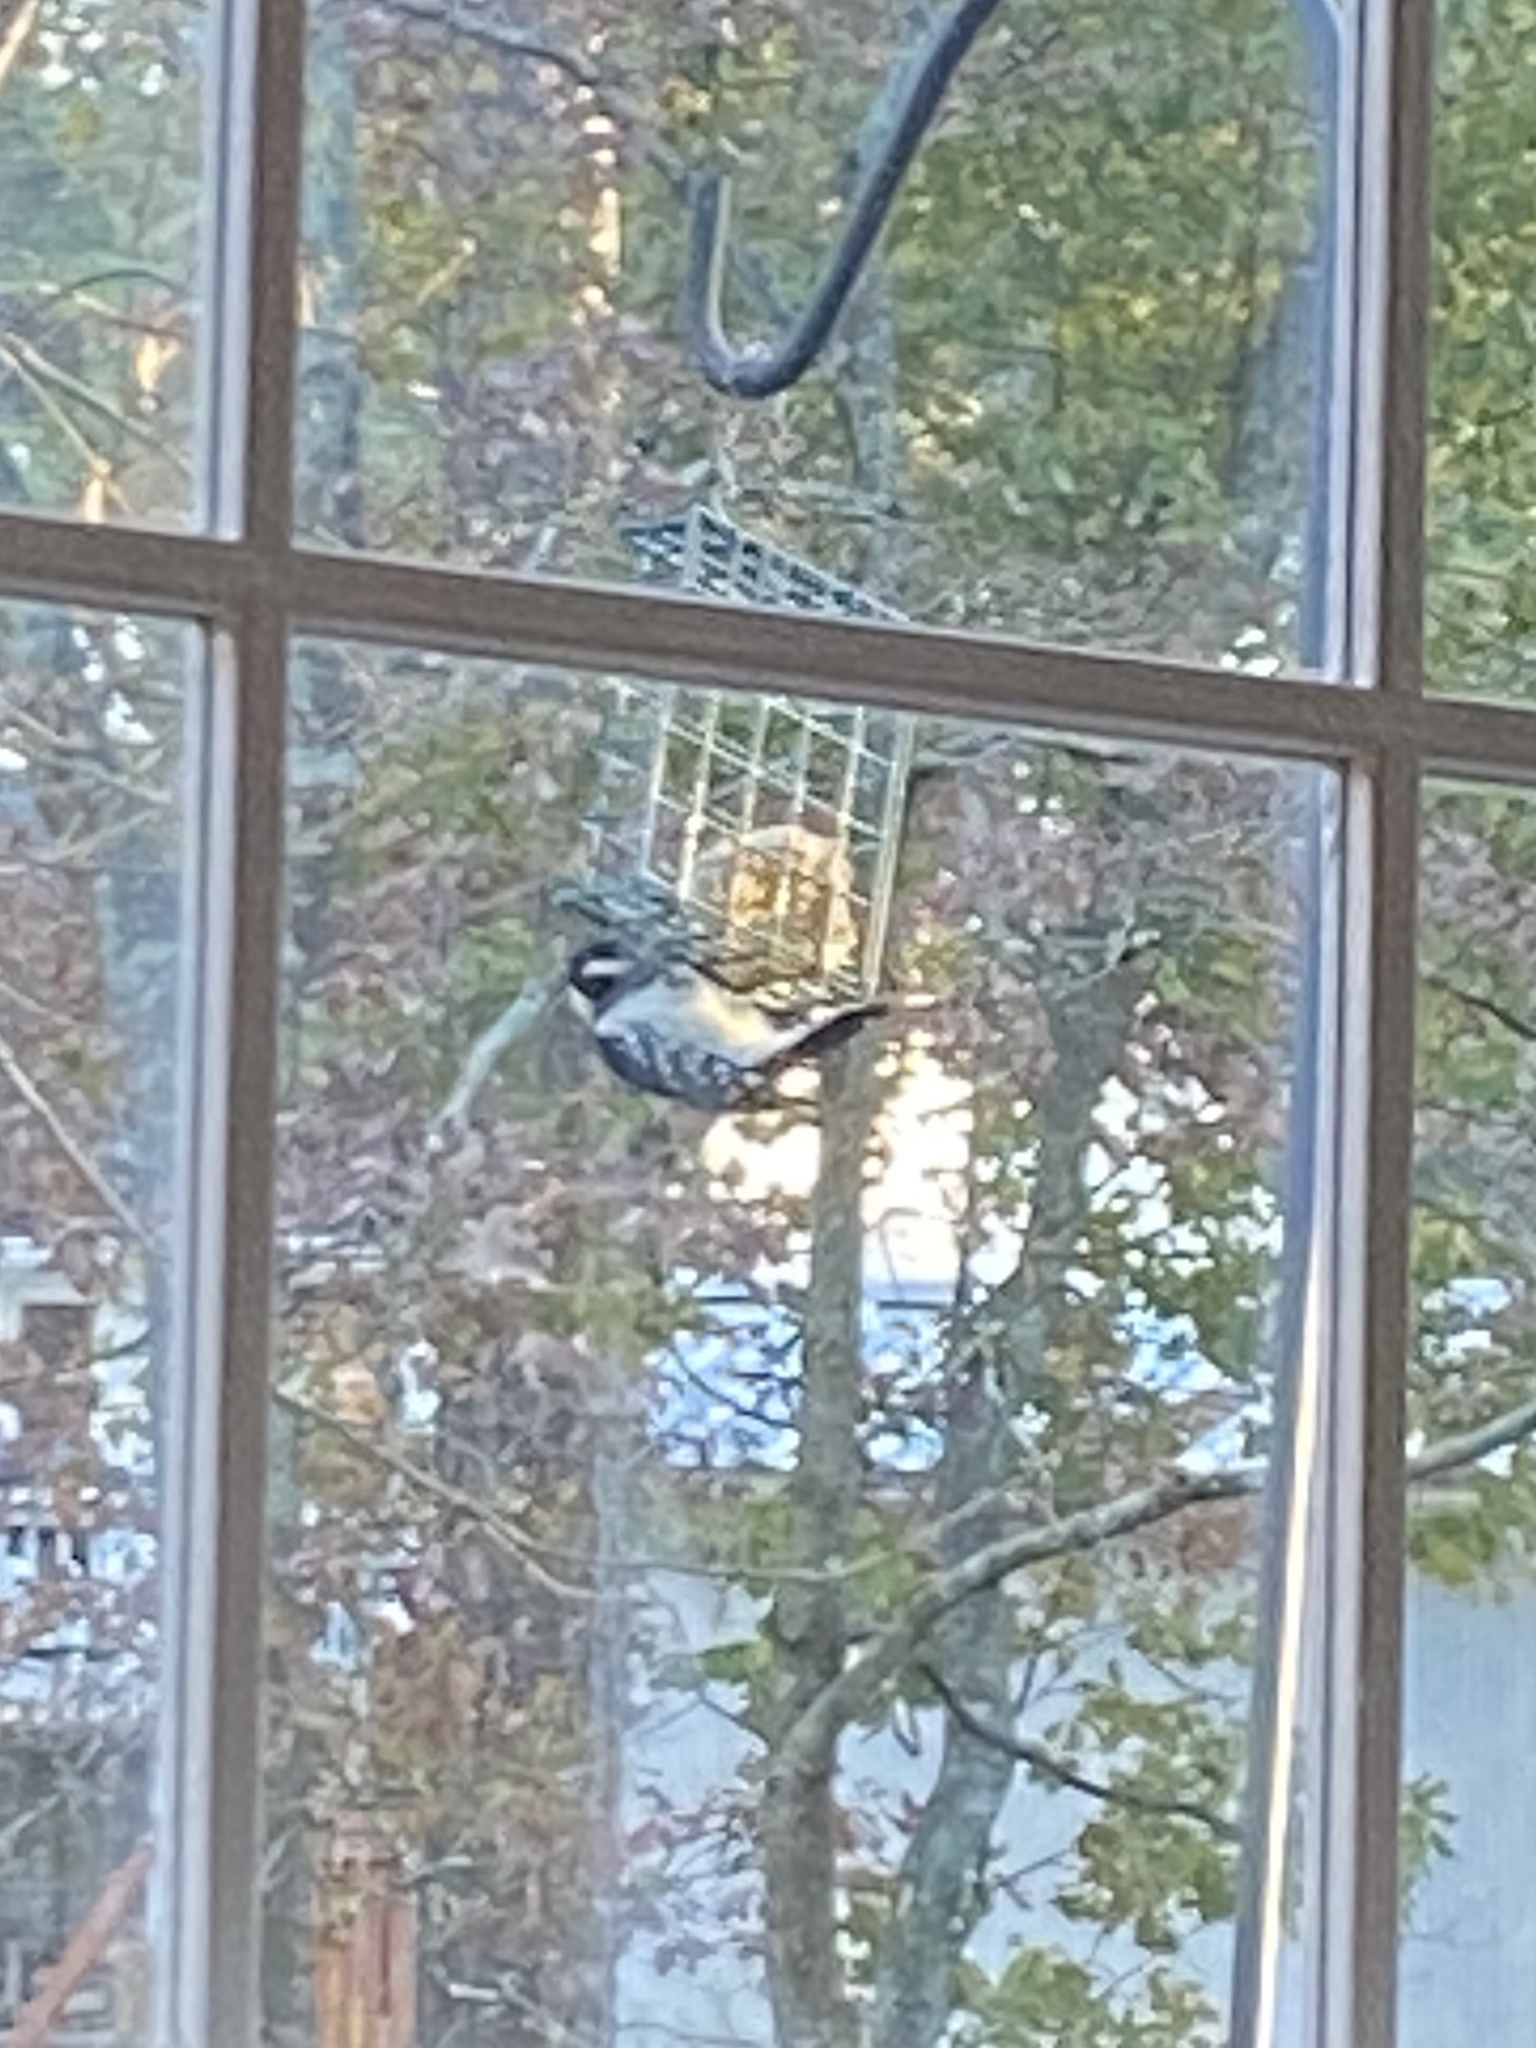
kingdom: Animalia
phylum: Chordata
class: Aves
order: Piciformes
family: Picidae
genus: Dryobates
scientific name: Dryobates pubescens
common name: Downy woodpecker
